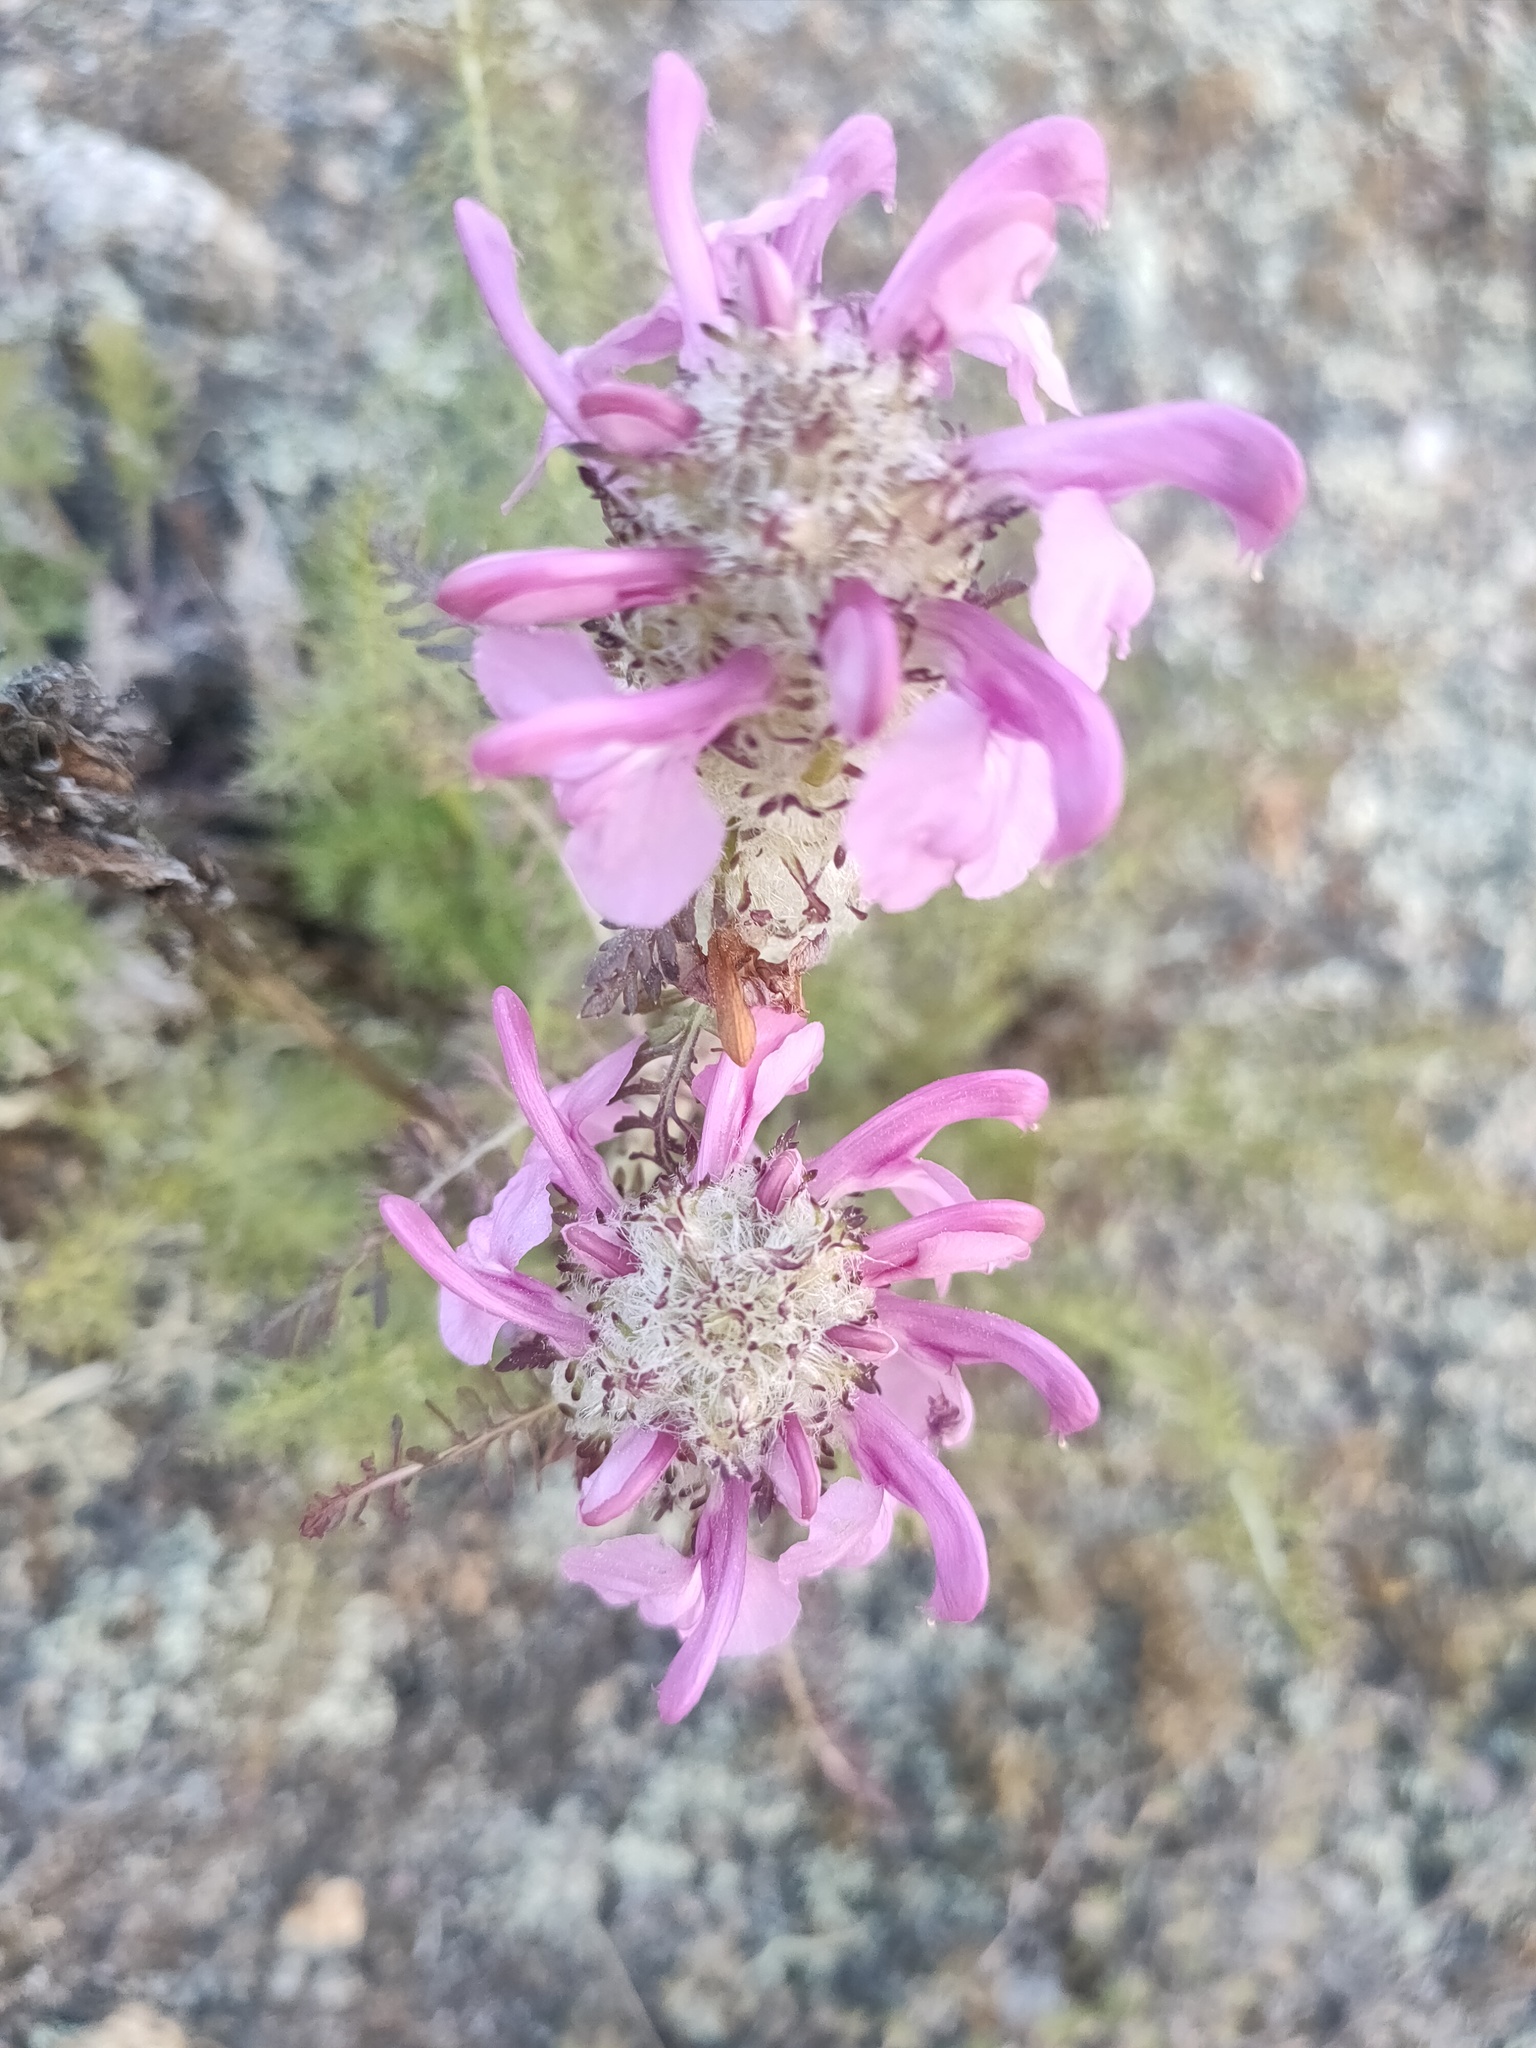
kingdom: Plantae
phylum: Tracheophyta
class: Magnoliopsida
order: Lamiales
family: Orobanchaceae
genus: Pedicularis
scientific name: Pedicularis rubens
